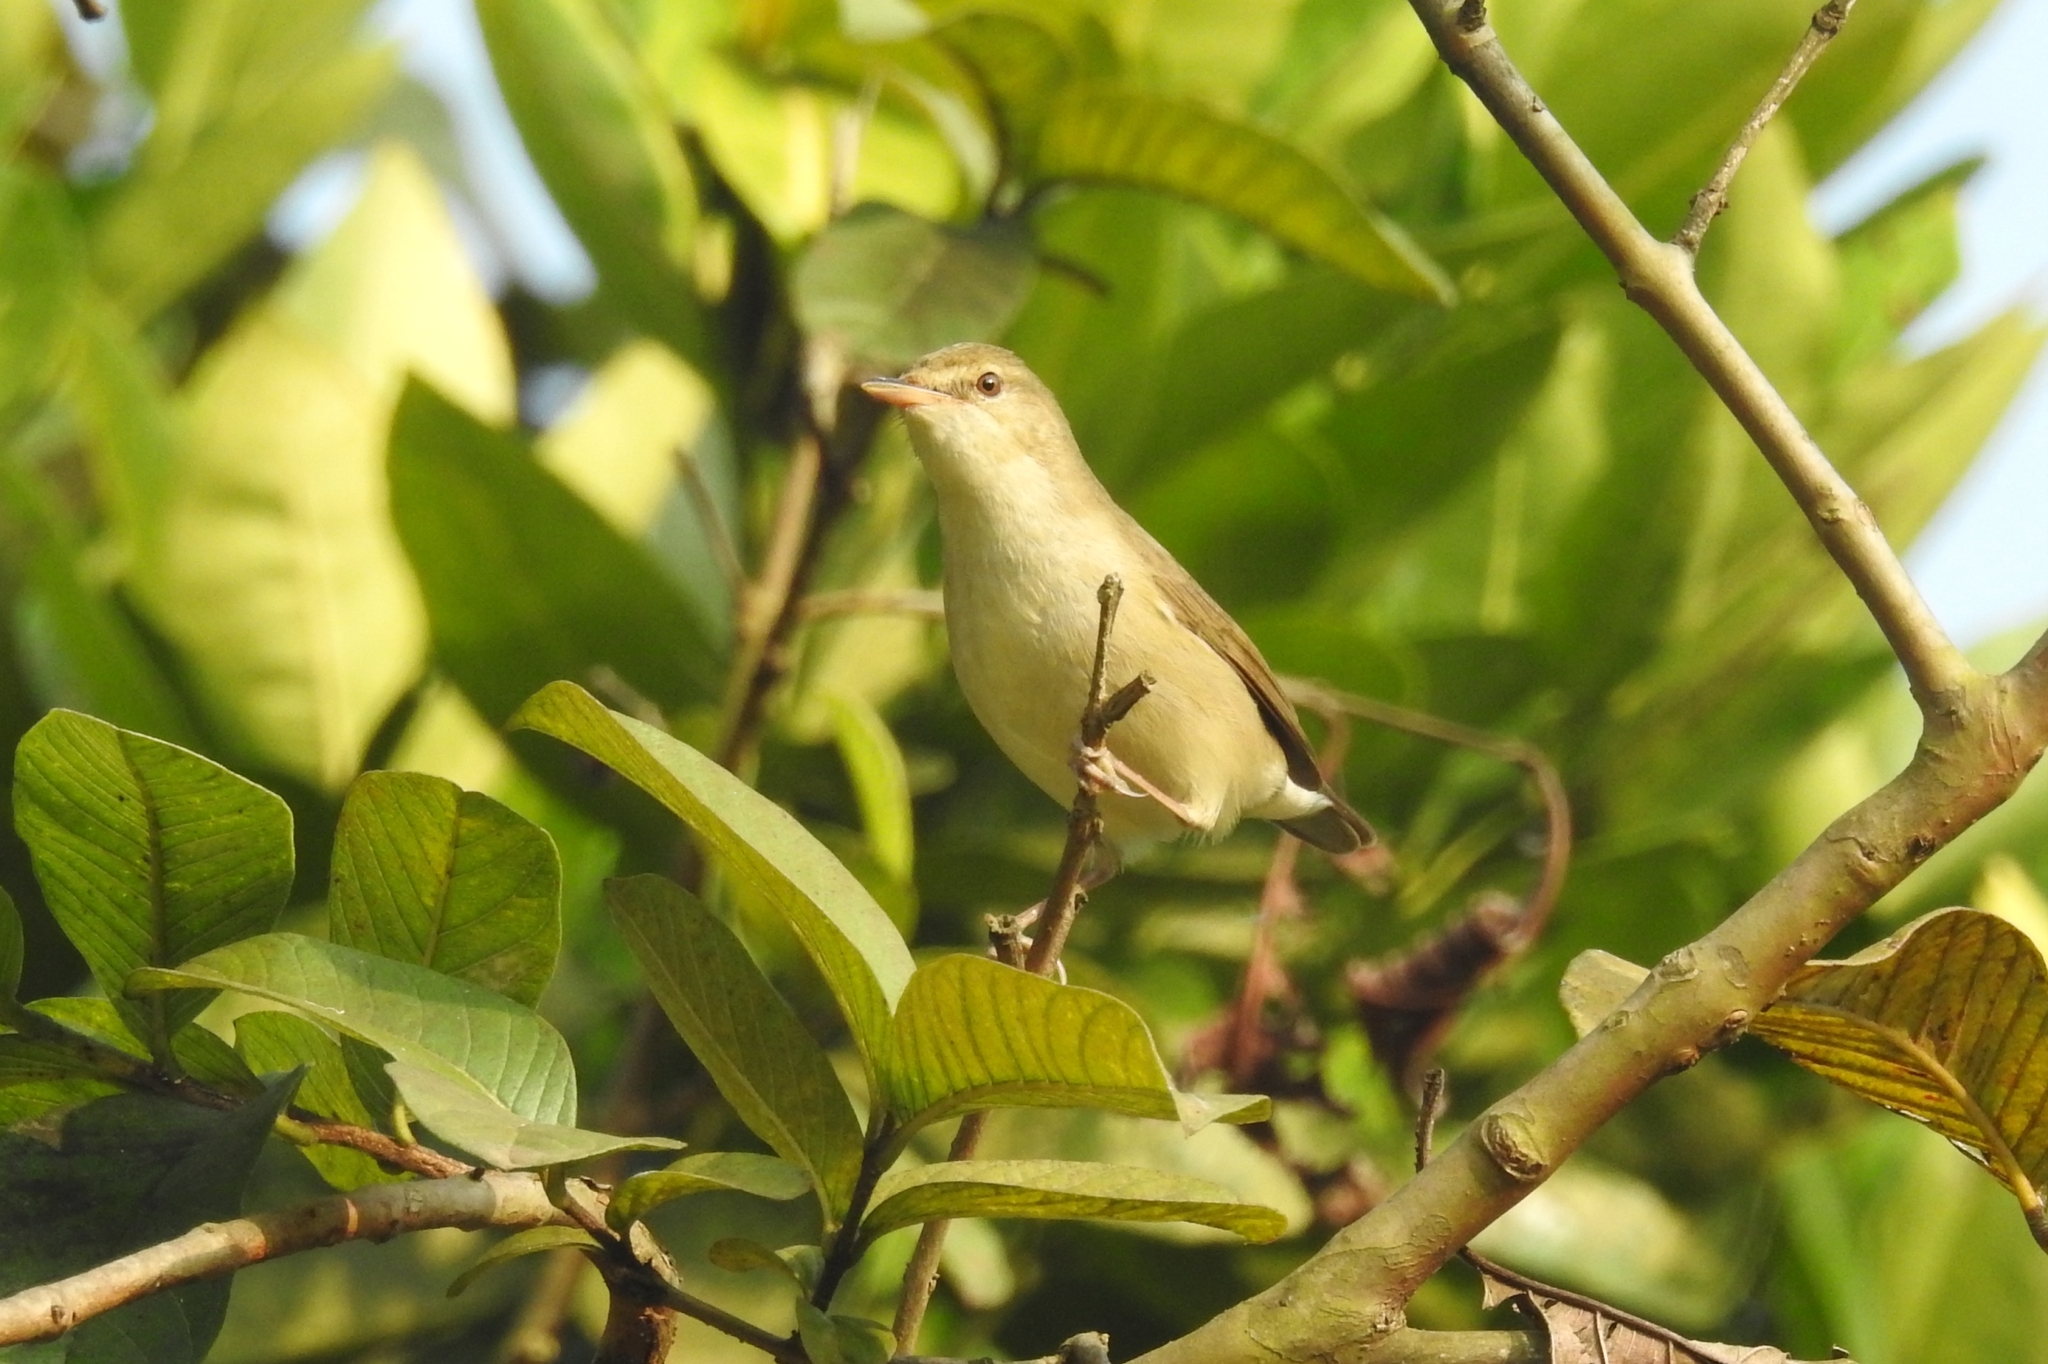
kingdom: Animalia
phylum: Chordata
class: Aves
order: Passeriformes
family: Acrocephalidae
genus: Acrocephalus
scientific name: Acrocephalus dumetorum
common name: Blyth's reed warbler
